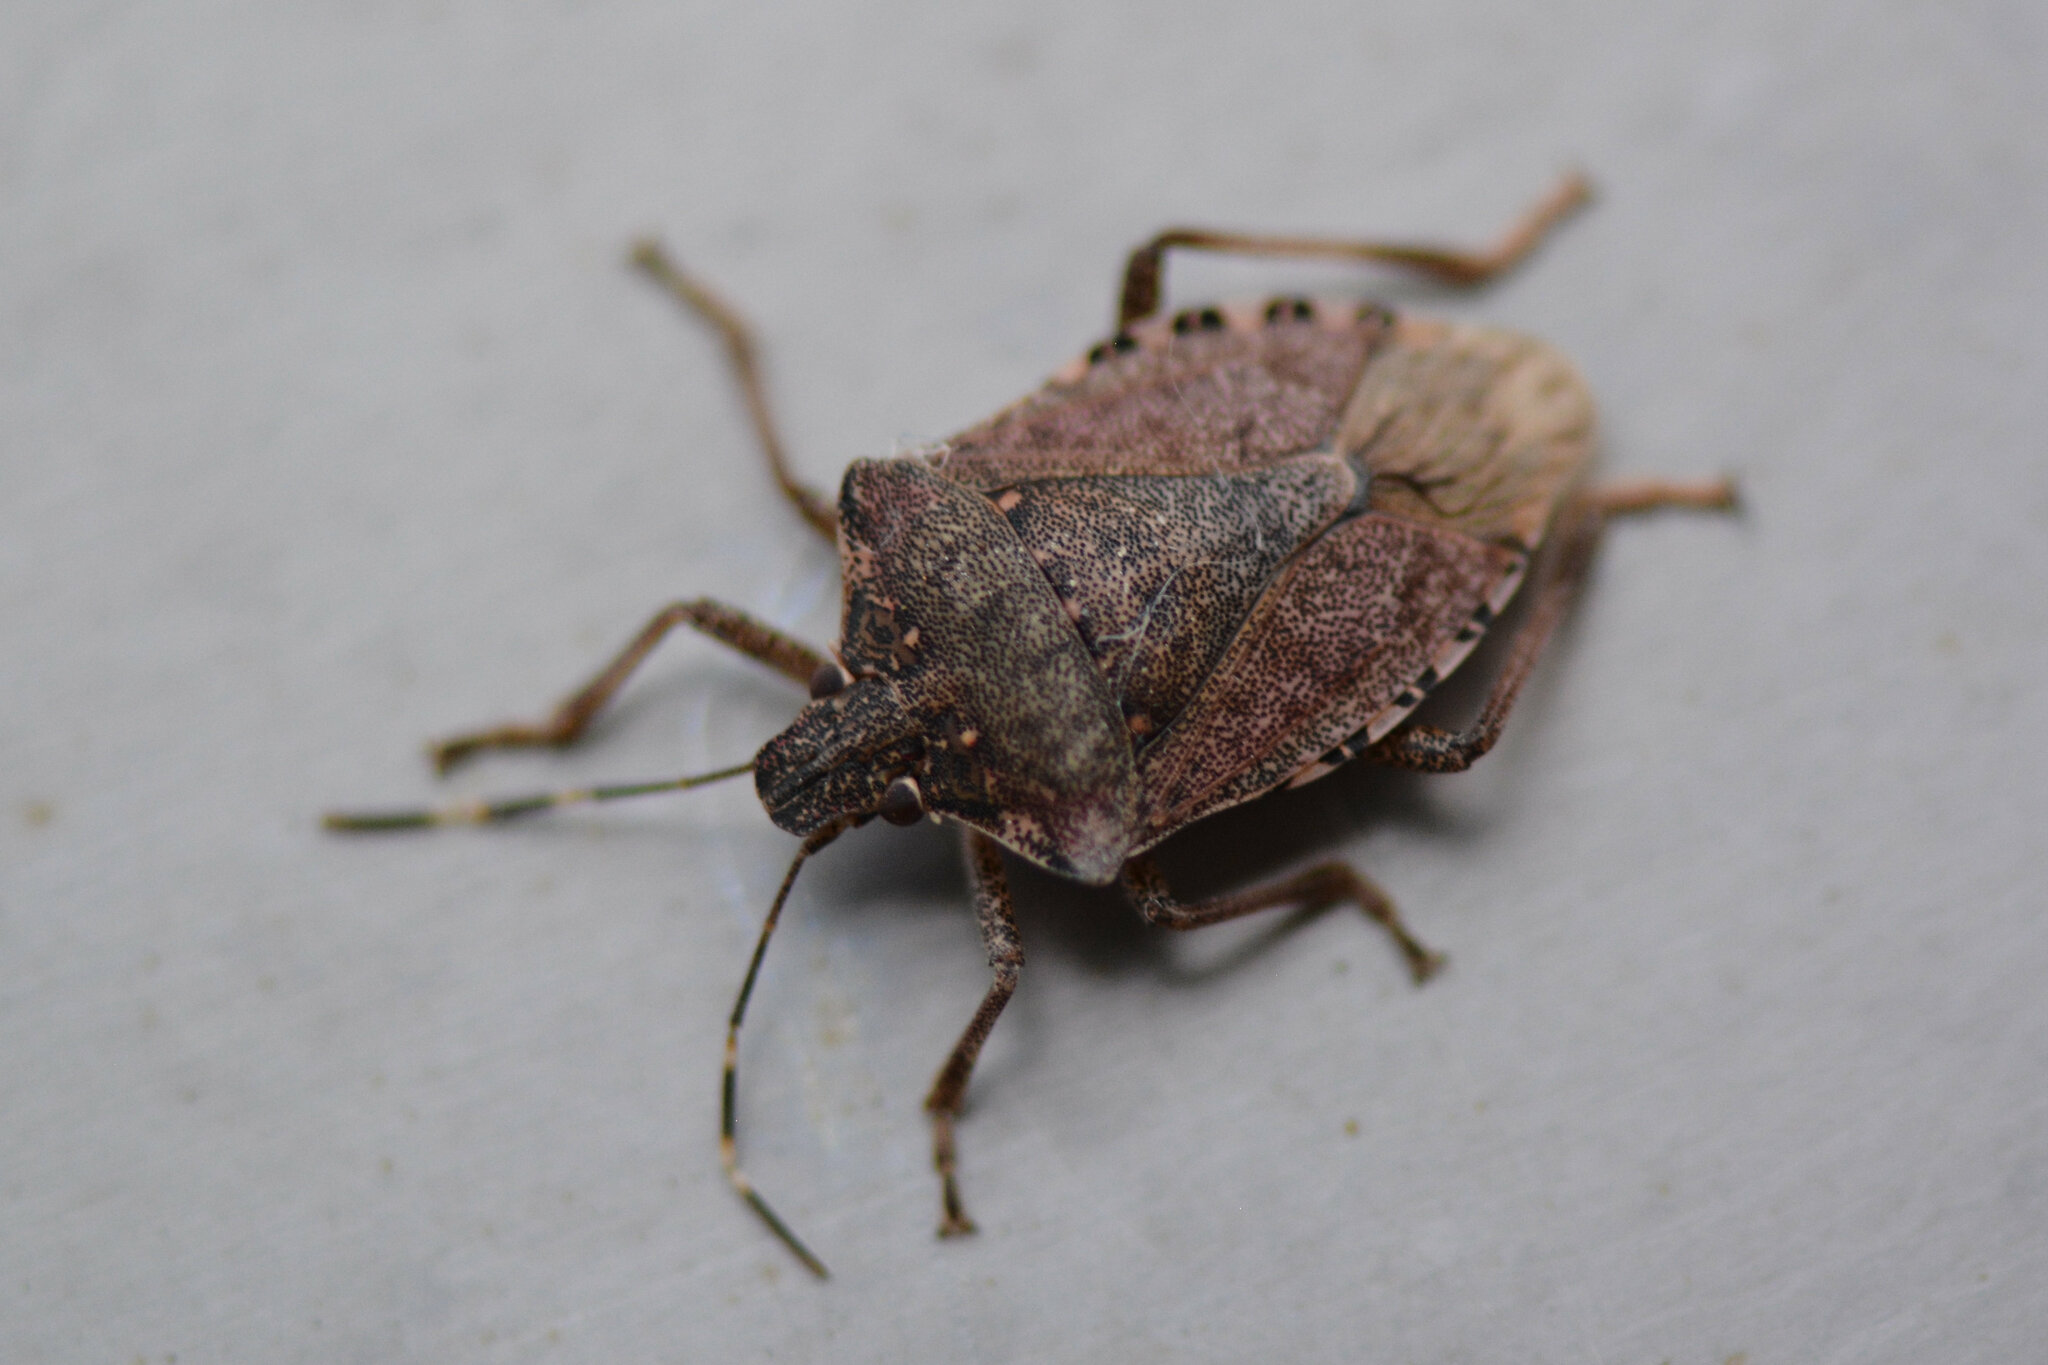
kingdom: Animalia
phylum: Arthropoda
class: Insecta
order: Hemiptera
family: Pentatomidae
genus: Halyomorpha
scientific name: Halyomorpha halys
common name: Brown marmorated stink bug
